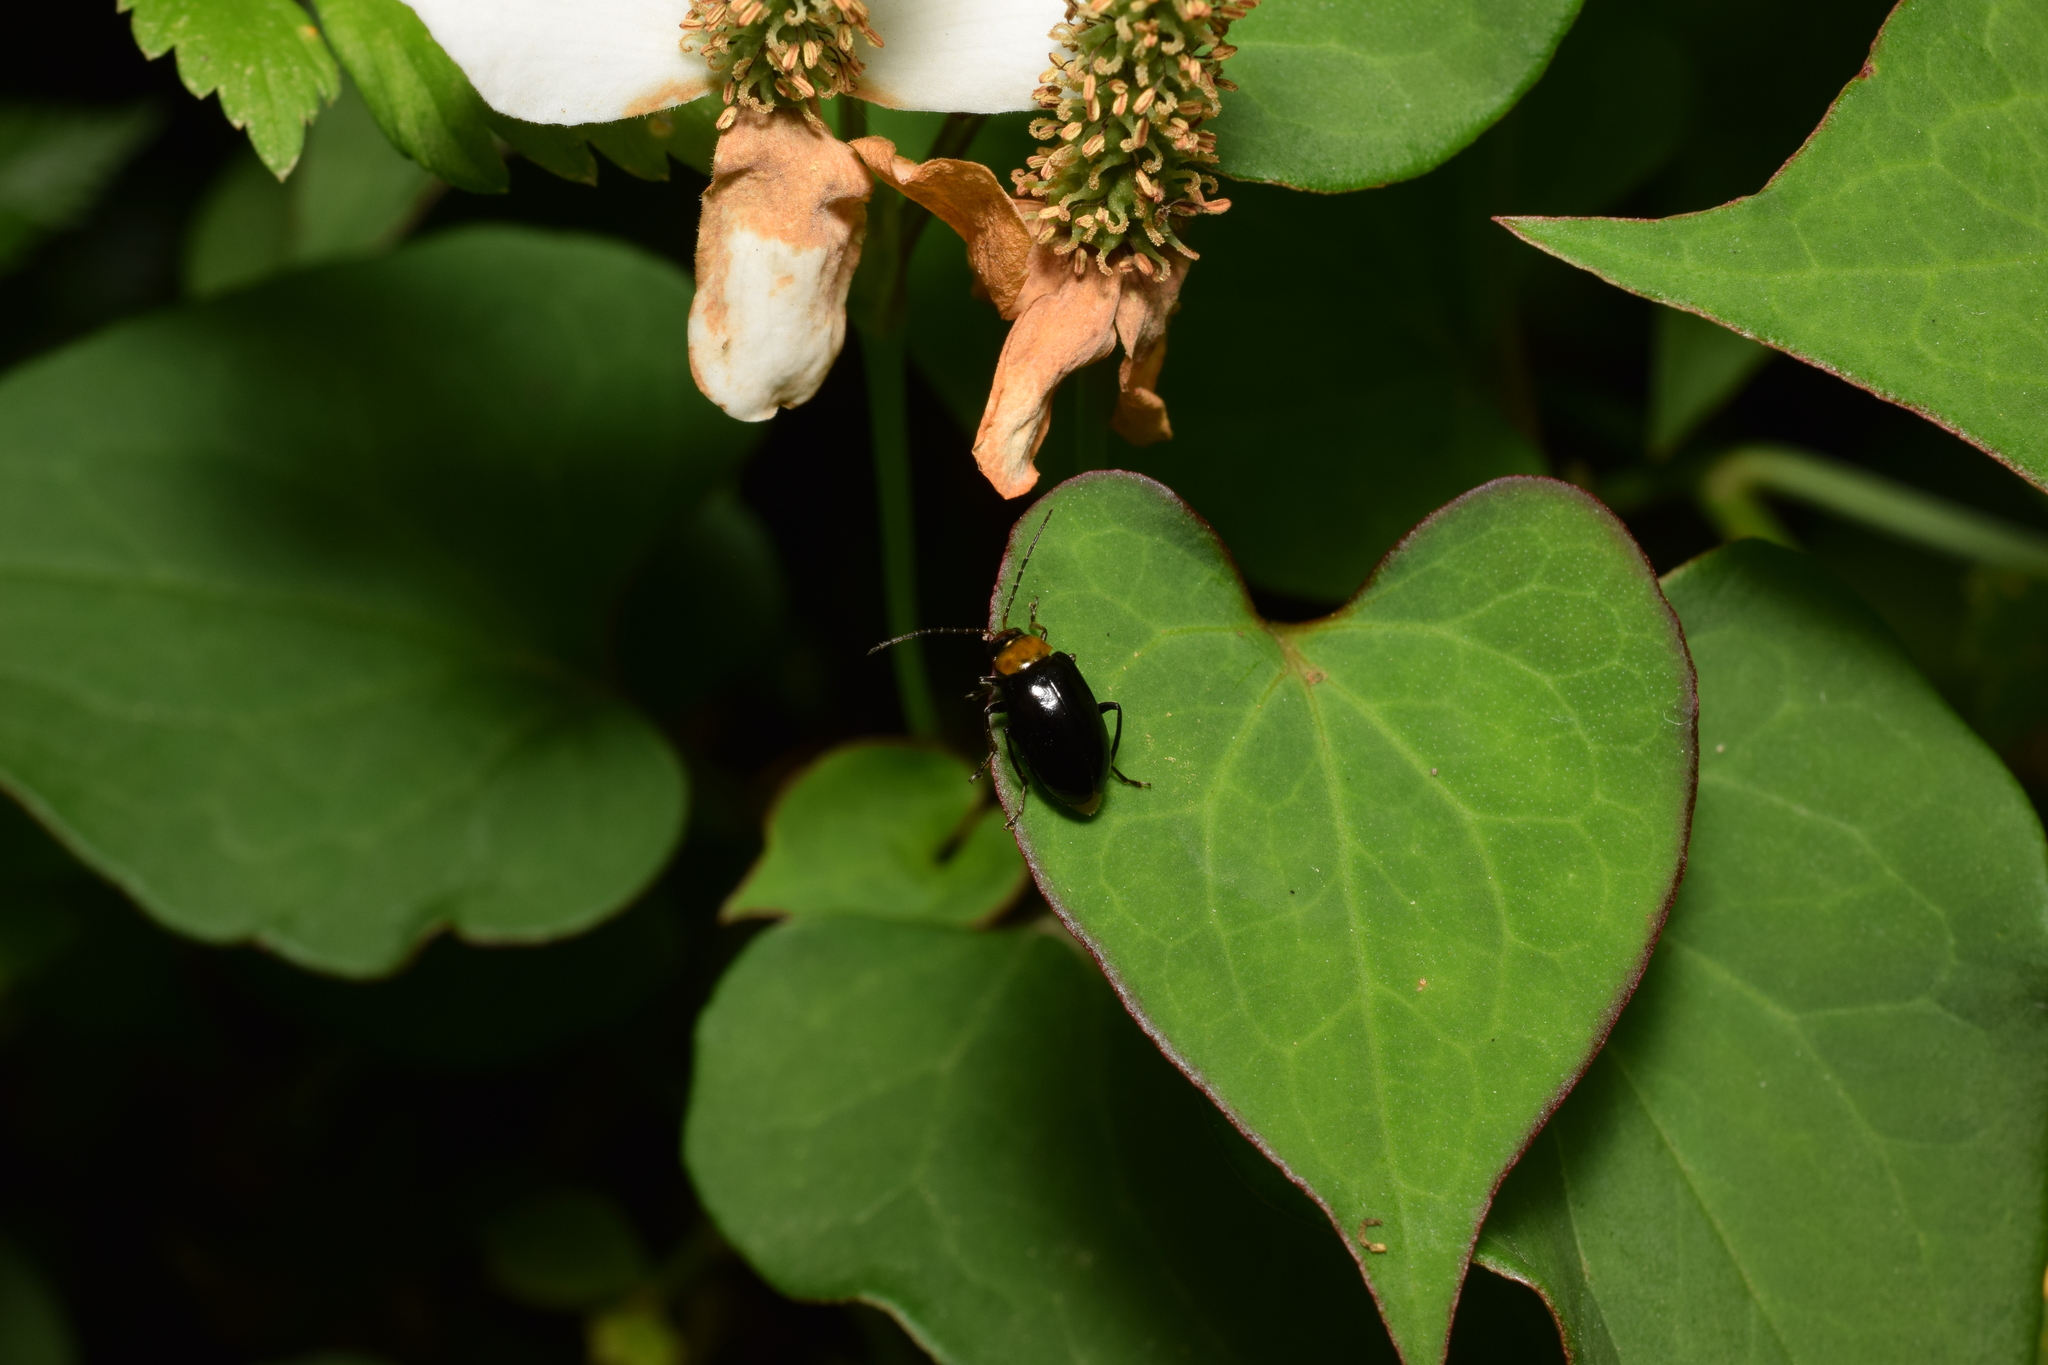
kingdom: Animalia
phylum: Arthropoda
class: Insecta
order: Coleoptera
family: Chrysomelidae
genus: Atrachya
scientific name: Atrachya menetriesi
